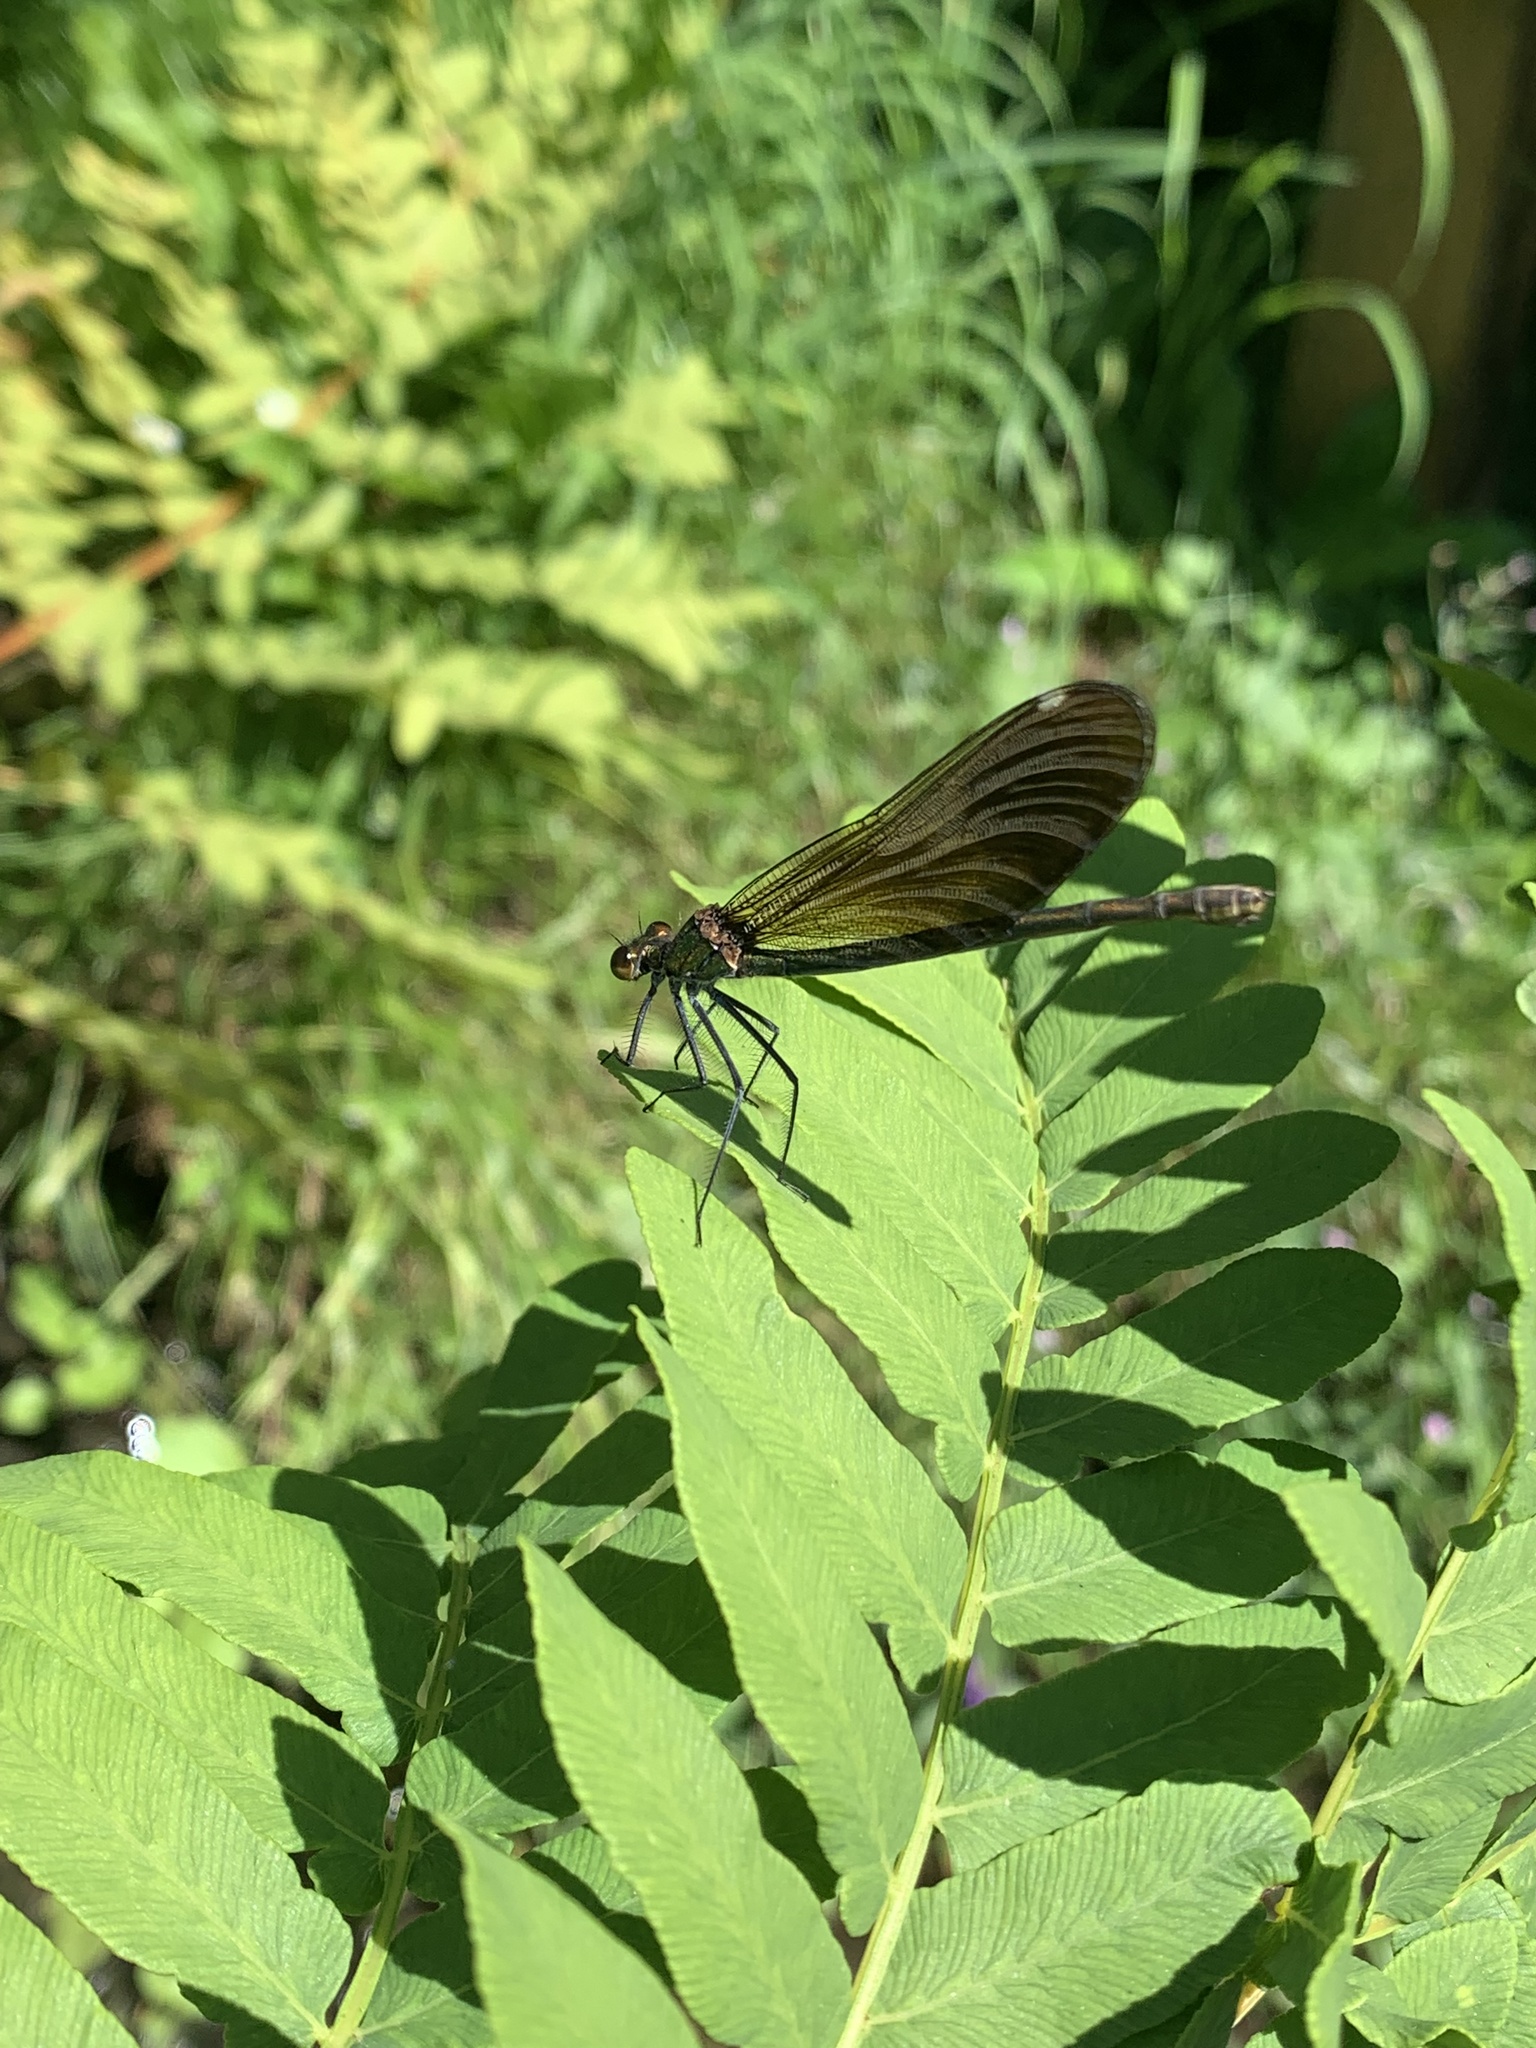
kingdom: Animalia
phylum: Arthropoda
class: Insecta
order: Odonata
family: Calopterygidae
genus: Calopteryx
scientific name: Calopteryx virgo
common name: Beautiful demoiselle
